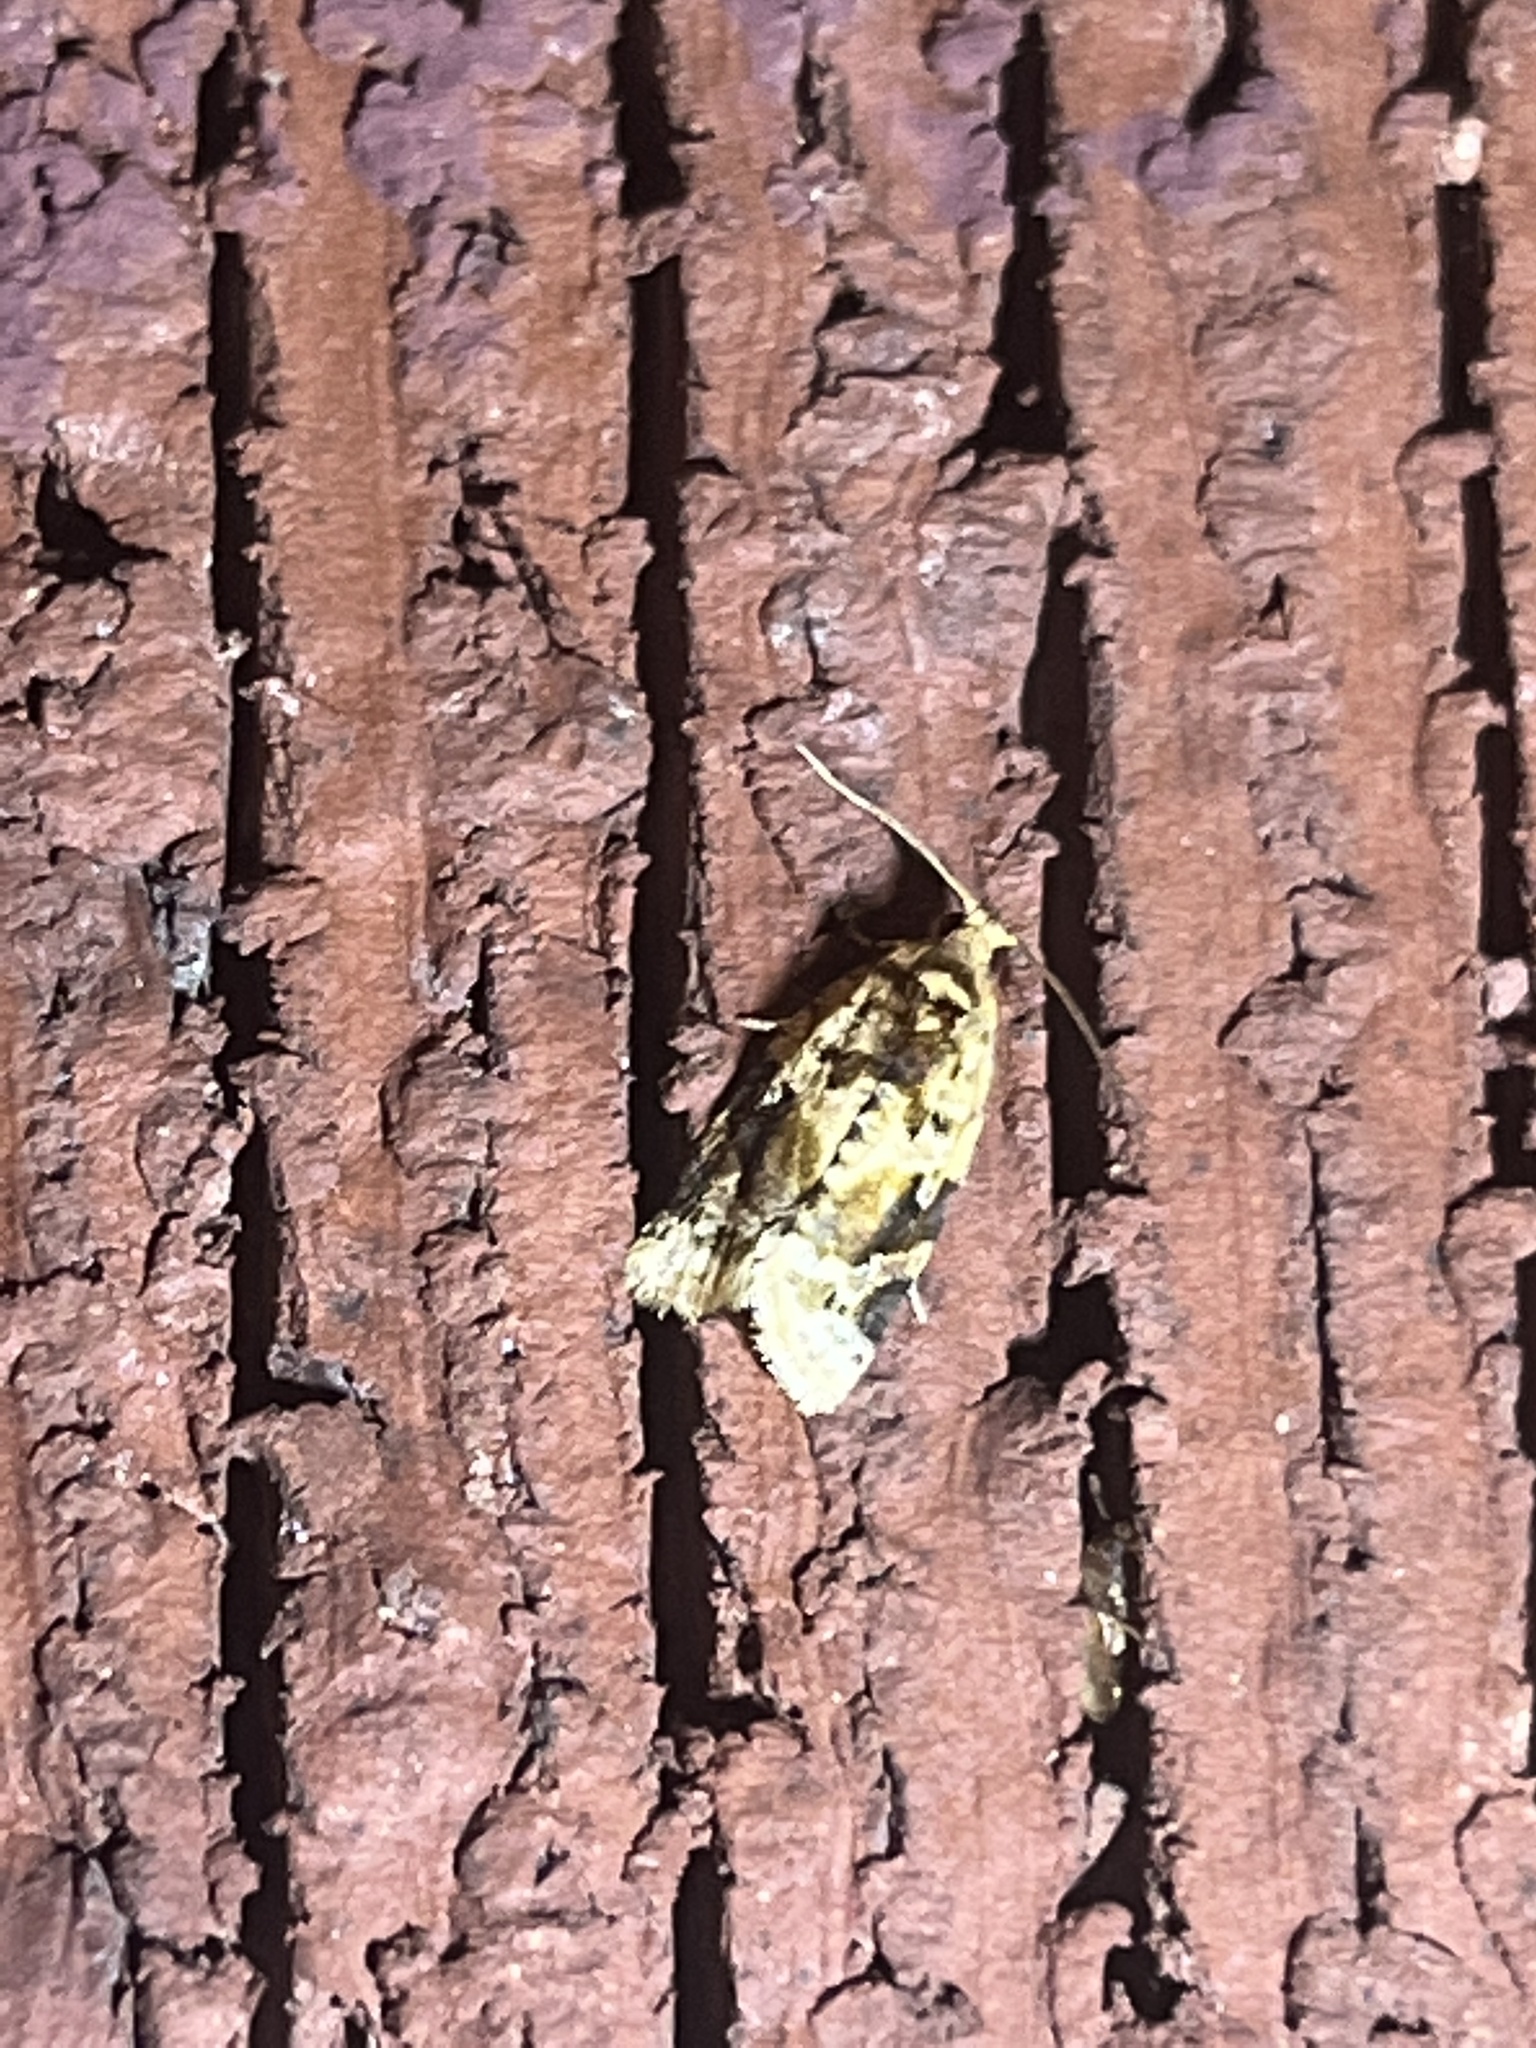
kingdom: Animalia
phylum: Arthropoda
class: Insecta
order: Lepidoptera
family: Tortricidae
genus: Argyrotaenia
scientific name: Argyrotaenia velutinana
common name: Red-banded leafroller moth
